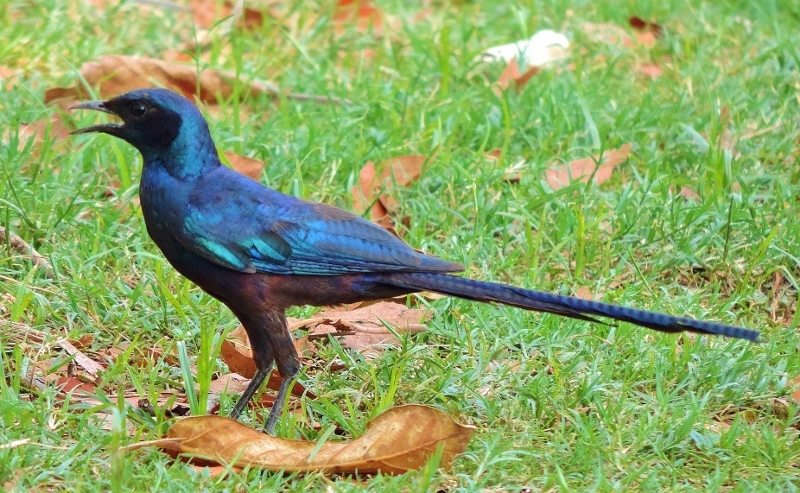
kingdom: Animalia
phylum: Chordata
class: Aves
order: Passeriformes
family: Sturnidae
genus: Lamprotornis
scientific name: Lamprotornis mevesii
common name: Meves's starling
